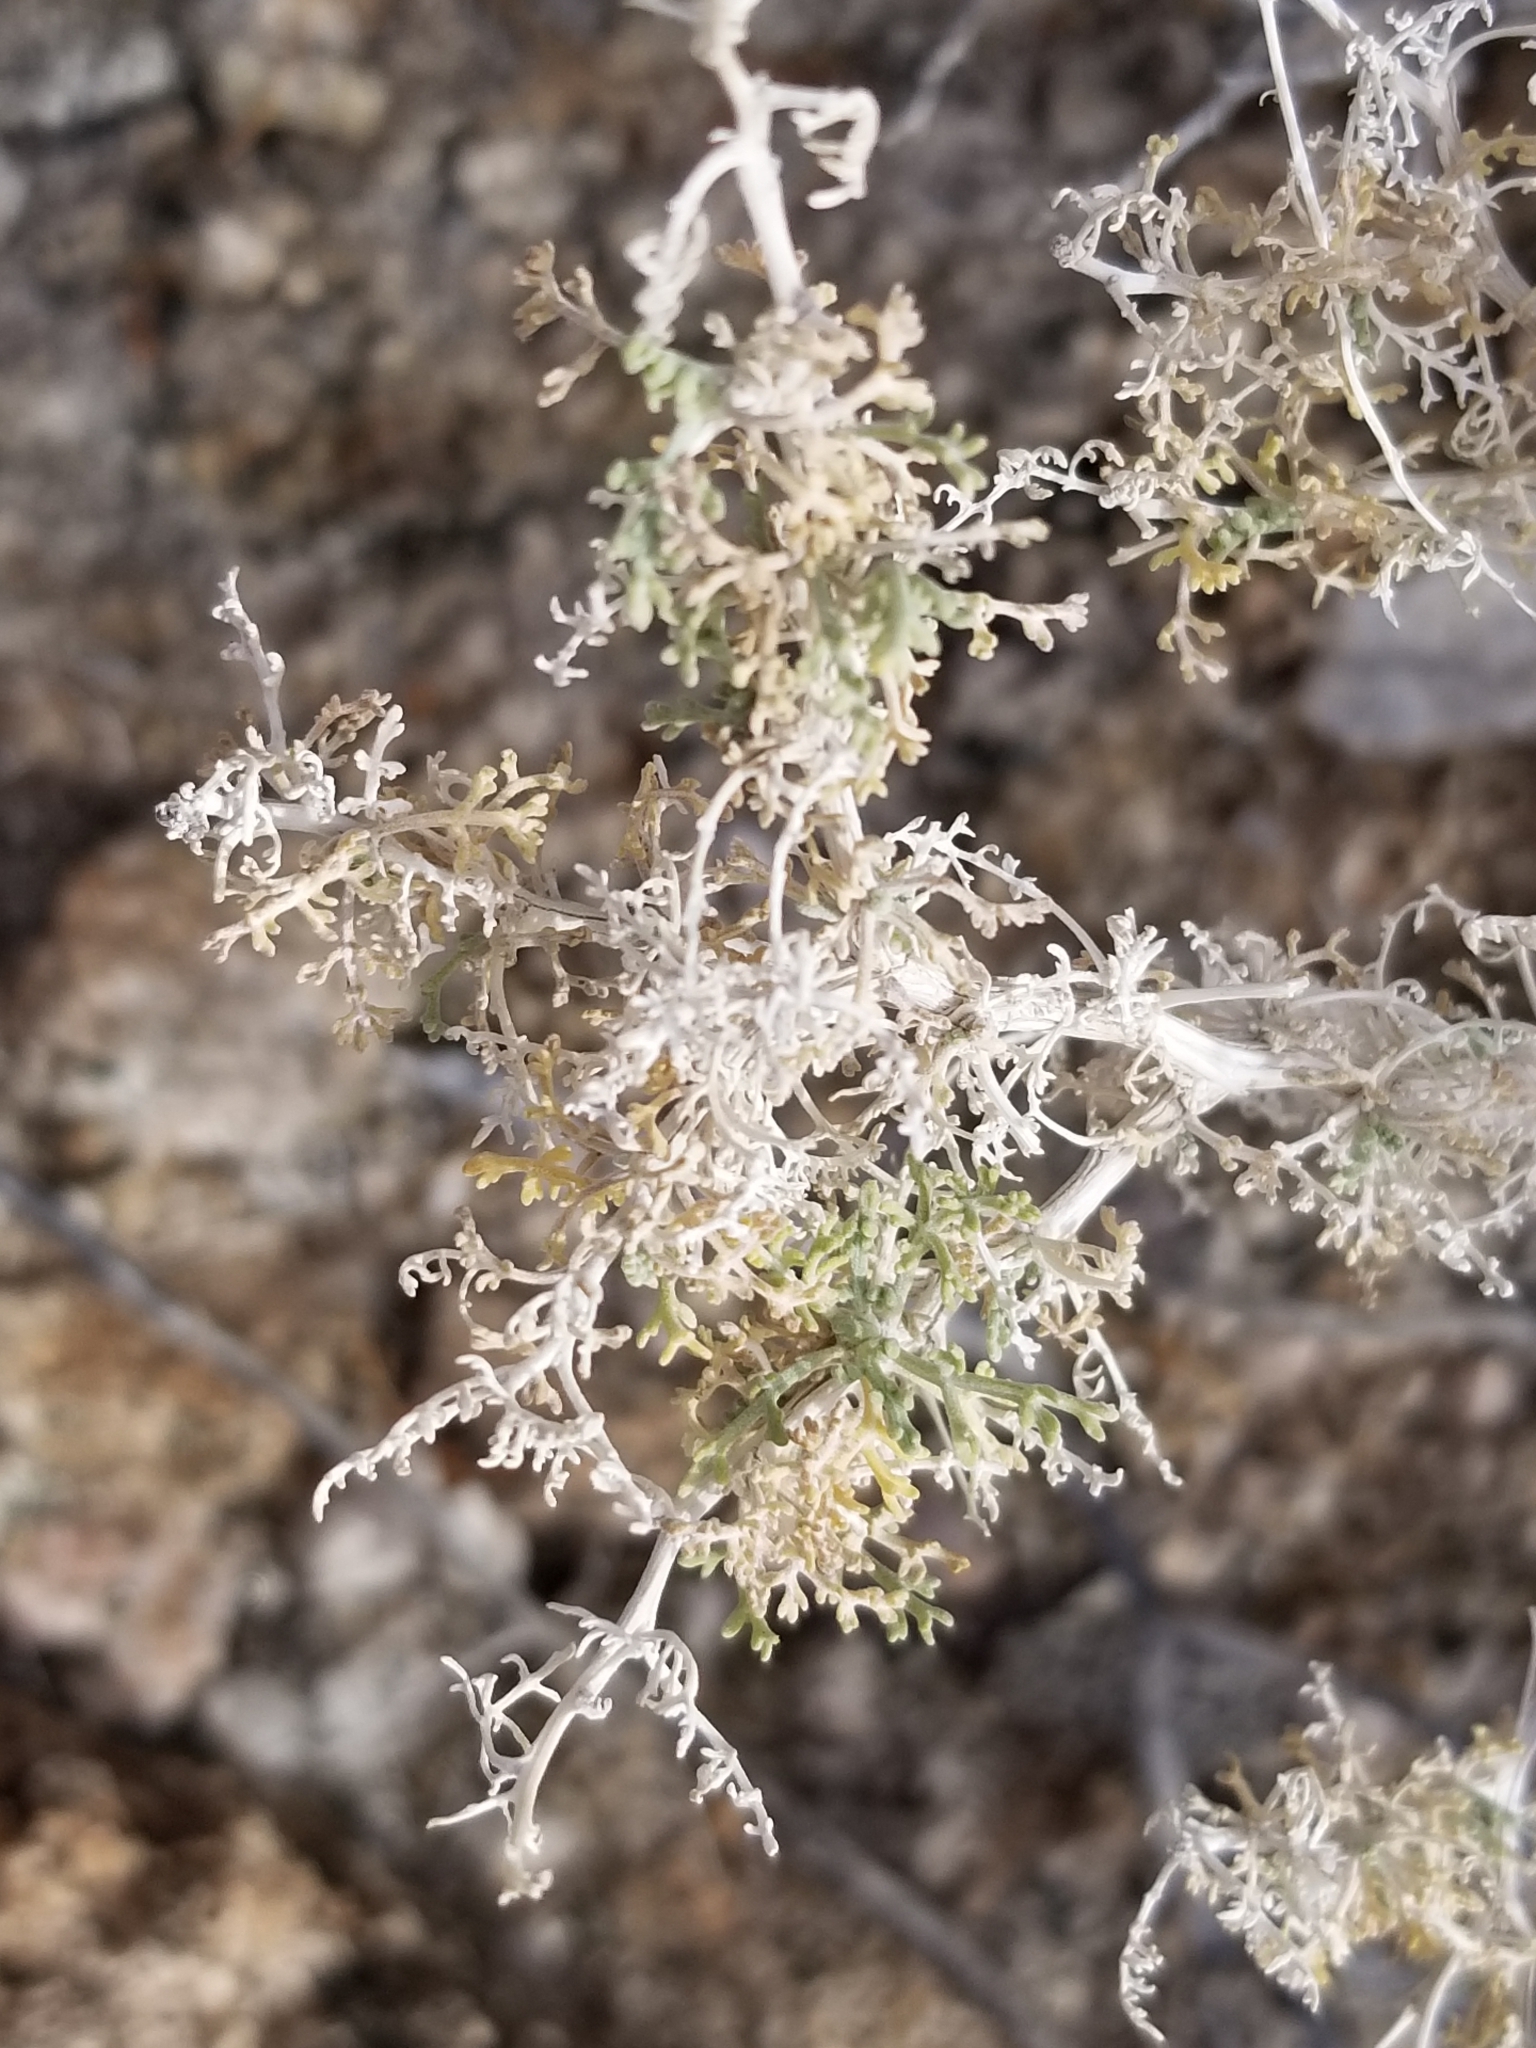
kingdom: Plantae
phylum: Tracheophyta
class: Magnoliopsida
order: Asterales
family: Asteraceae
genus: Ambrosia
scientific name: Ambrosia dumosa
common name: Bur-sage
